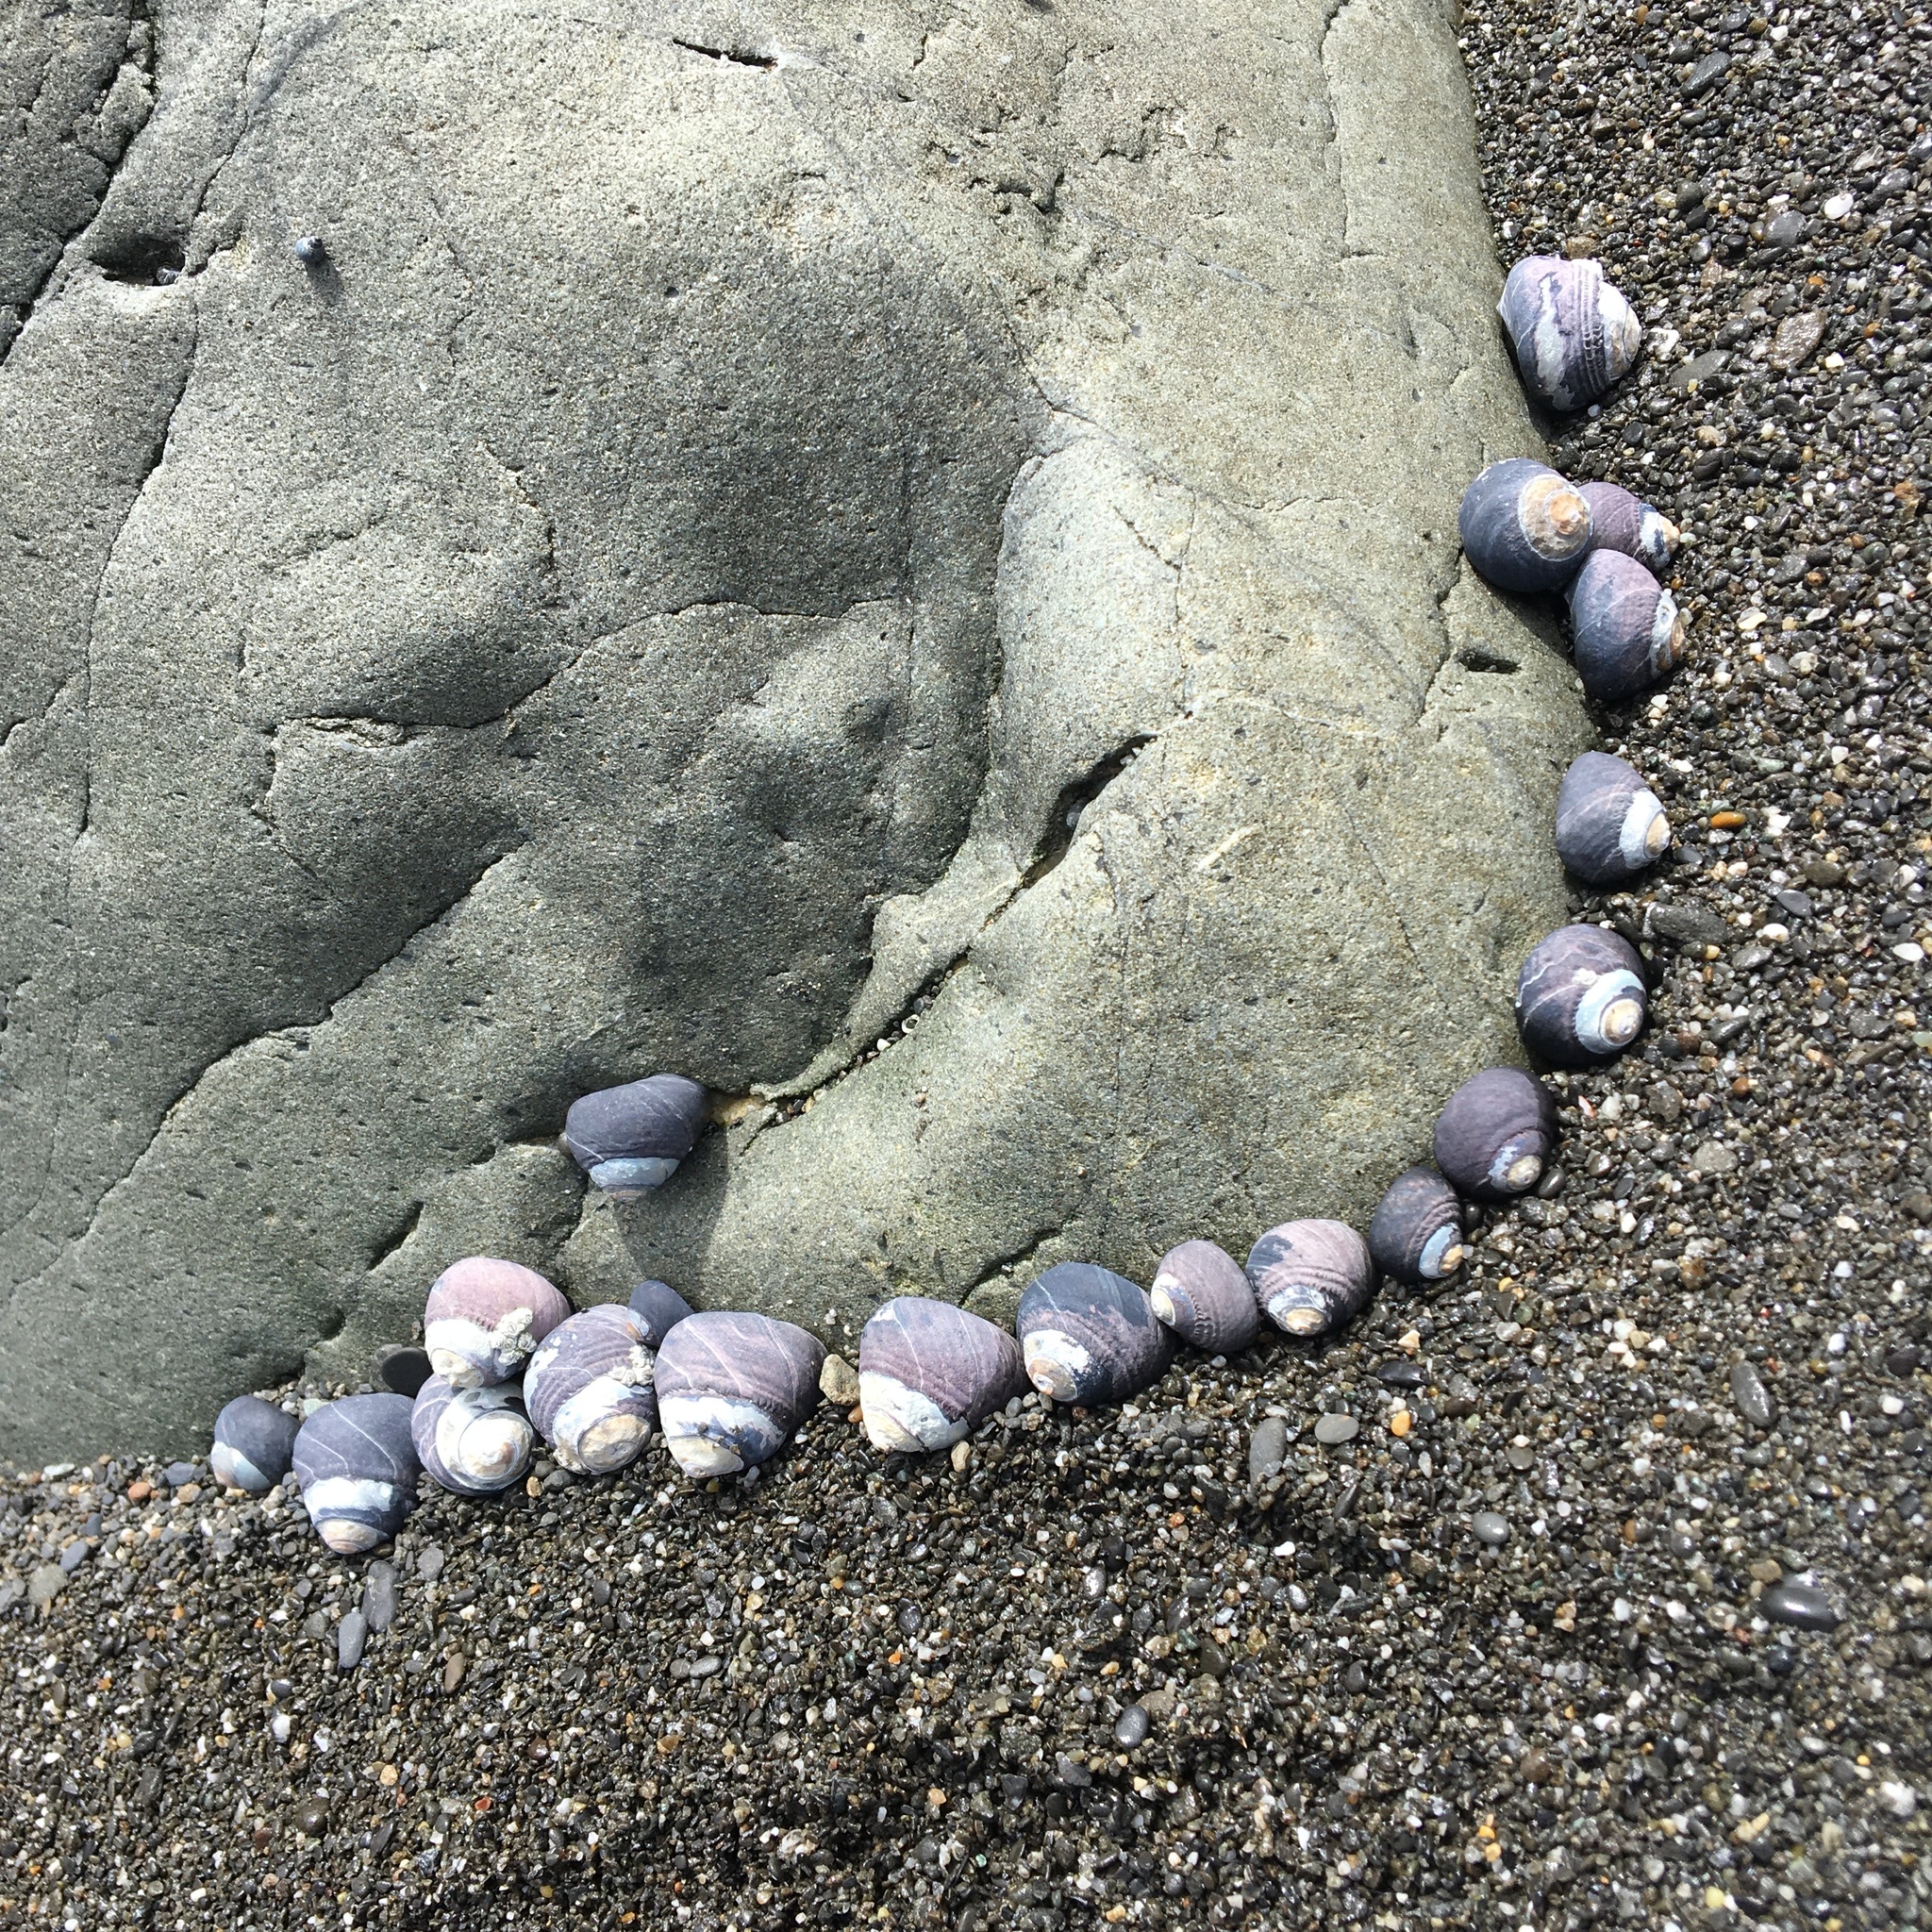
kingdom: Animalia
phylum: Mollusca
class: Gastropoda
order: Trochida
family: Tegulidae
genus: Tegula
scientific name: Tegula funebralis
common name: Black tegula
